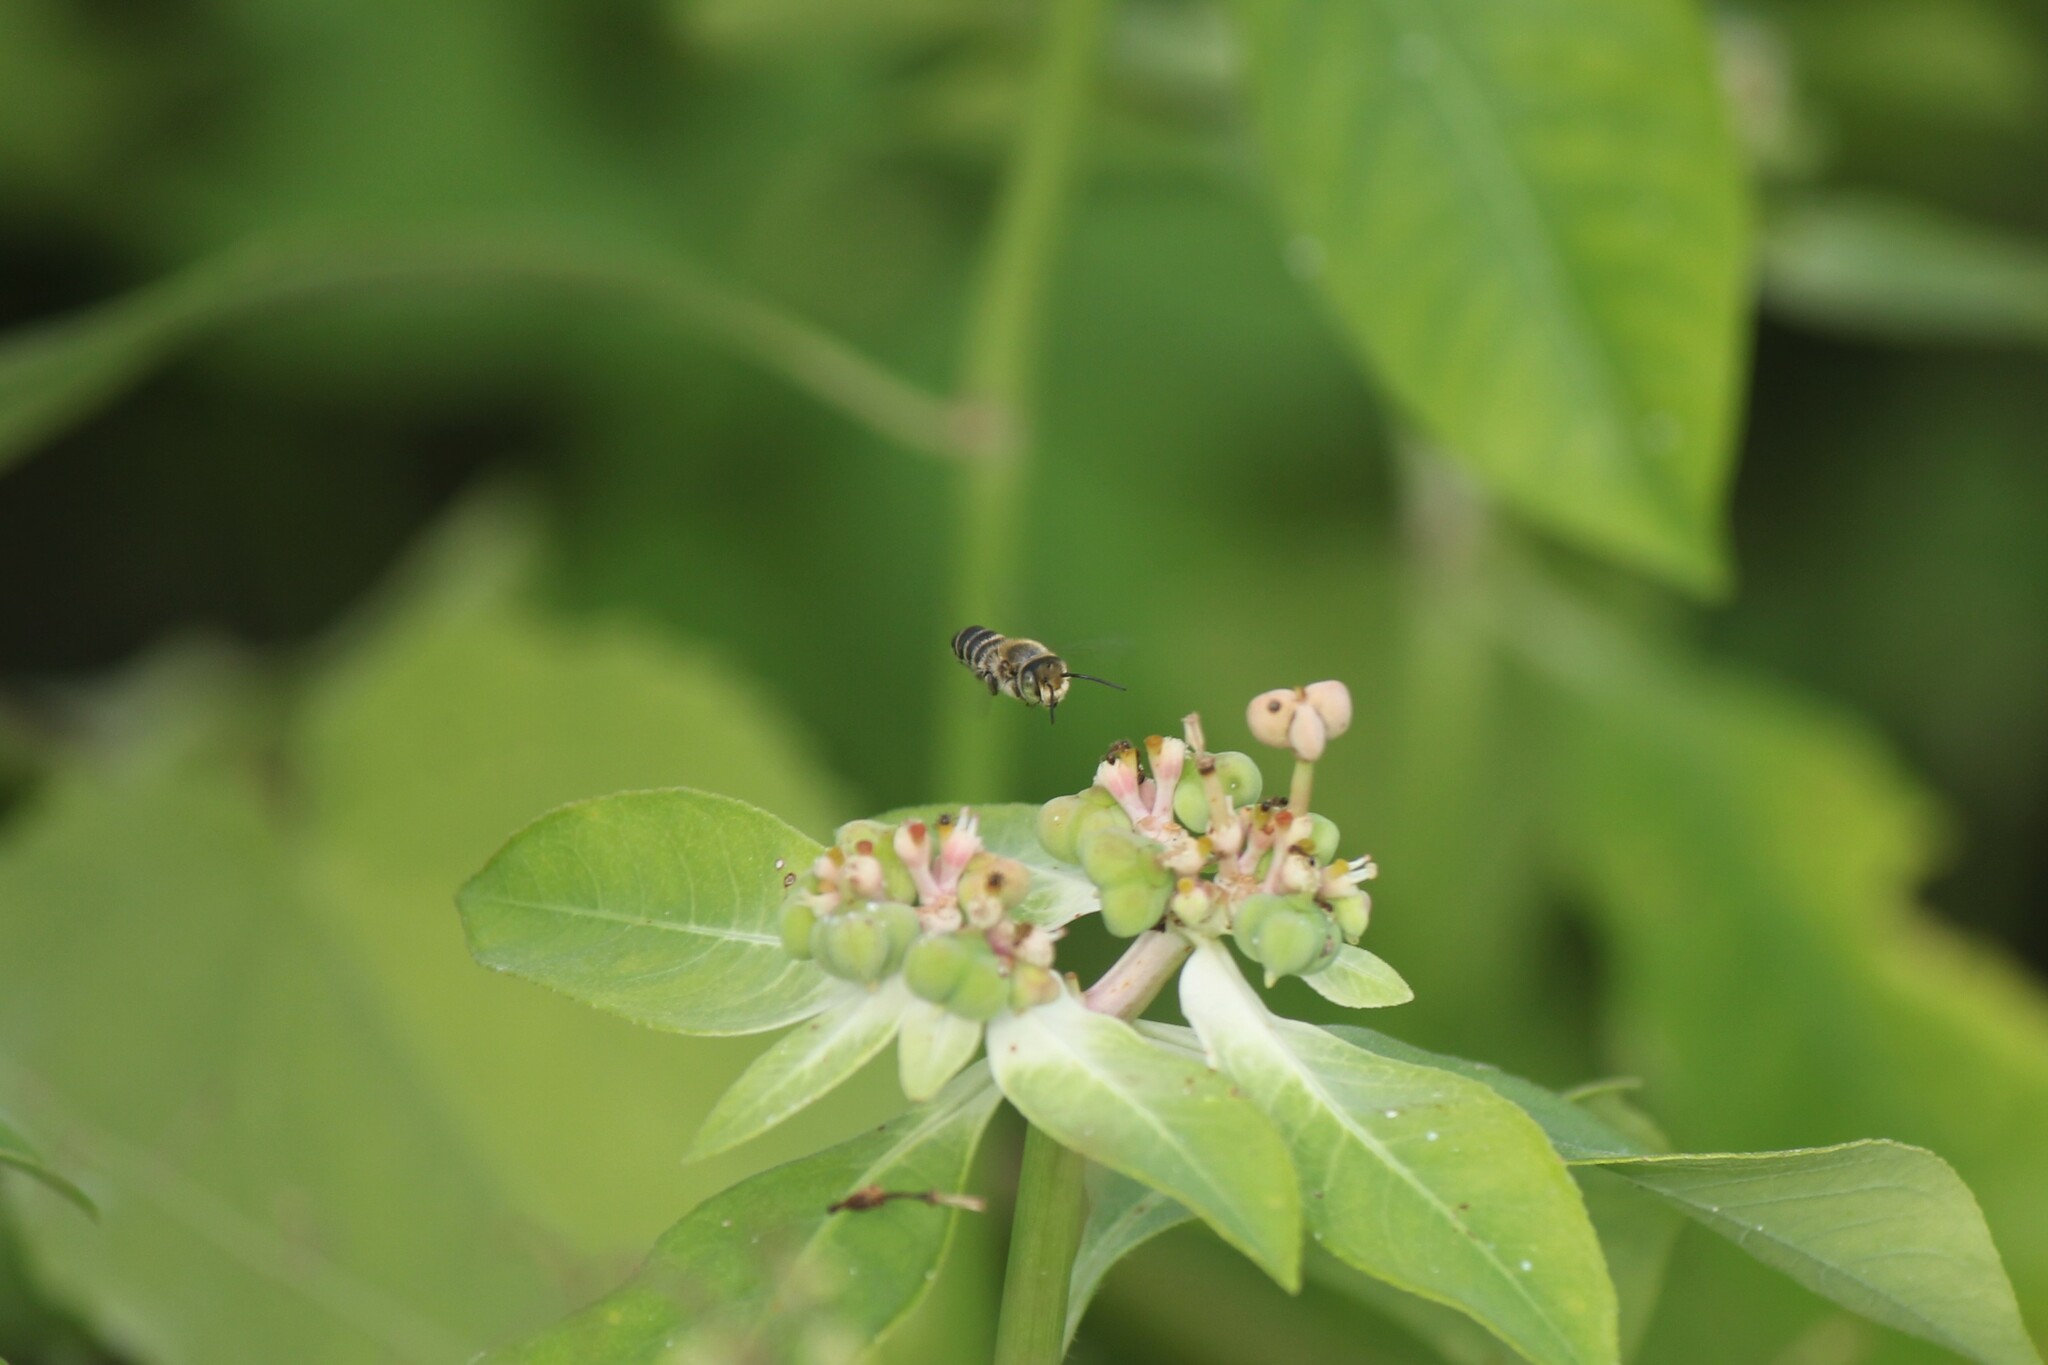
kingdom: Animalia
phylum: Arthropoda
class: Insecta
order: Hymenoptera
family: Megachilidae
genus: Megachile
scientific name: Megachile pusilla
